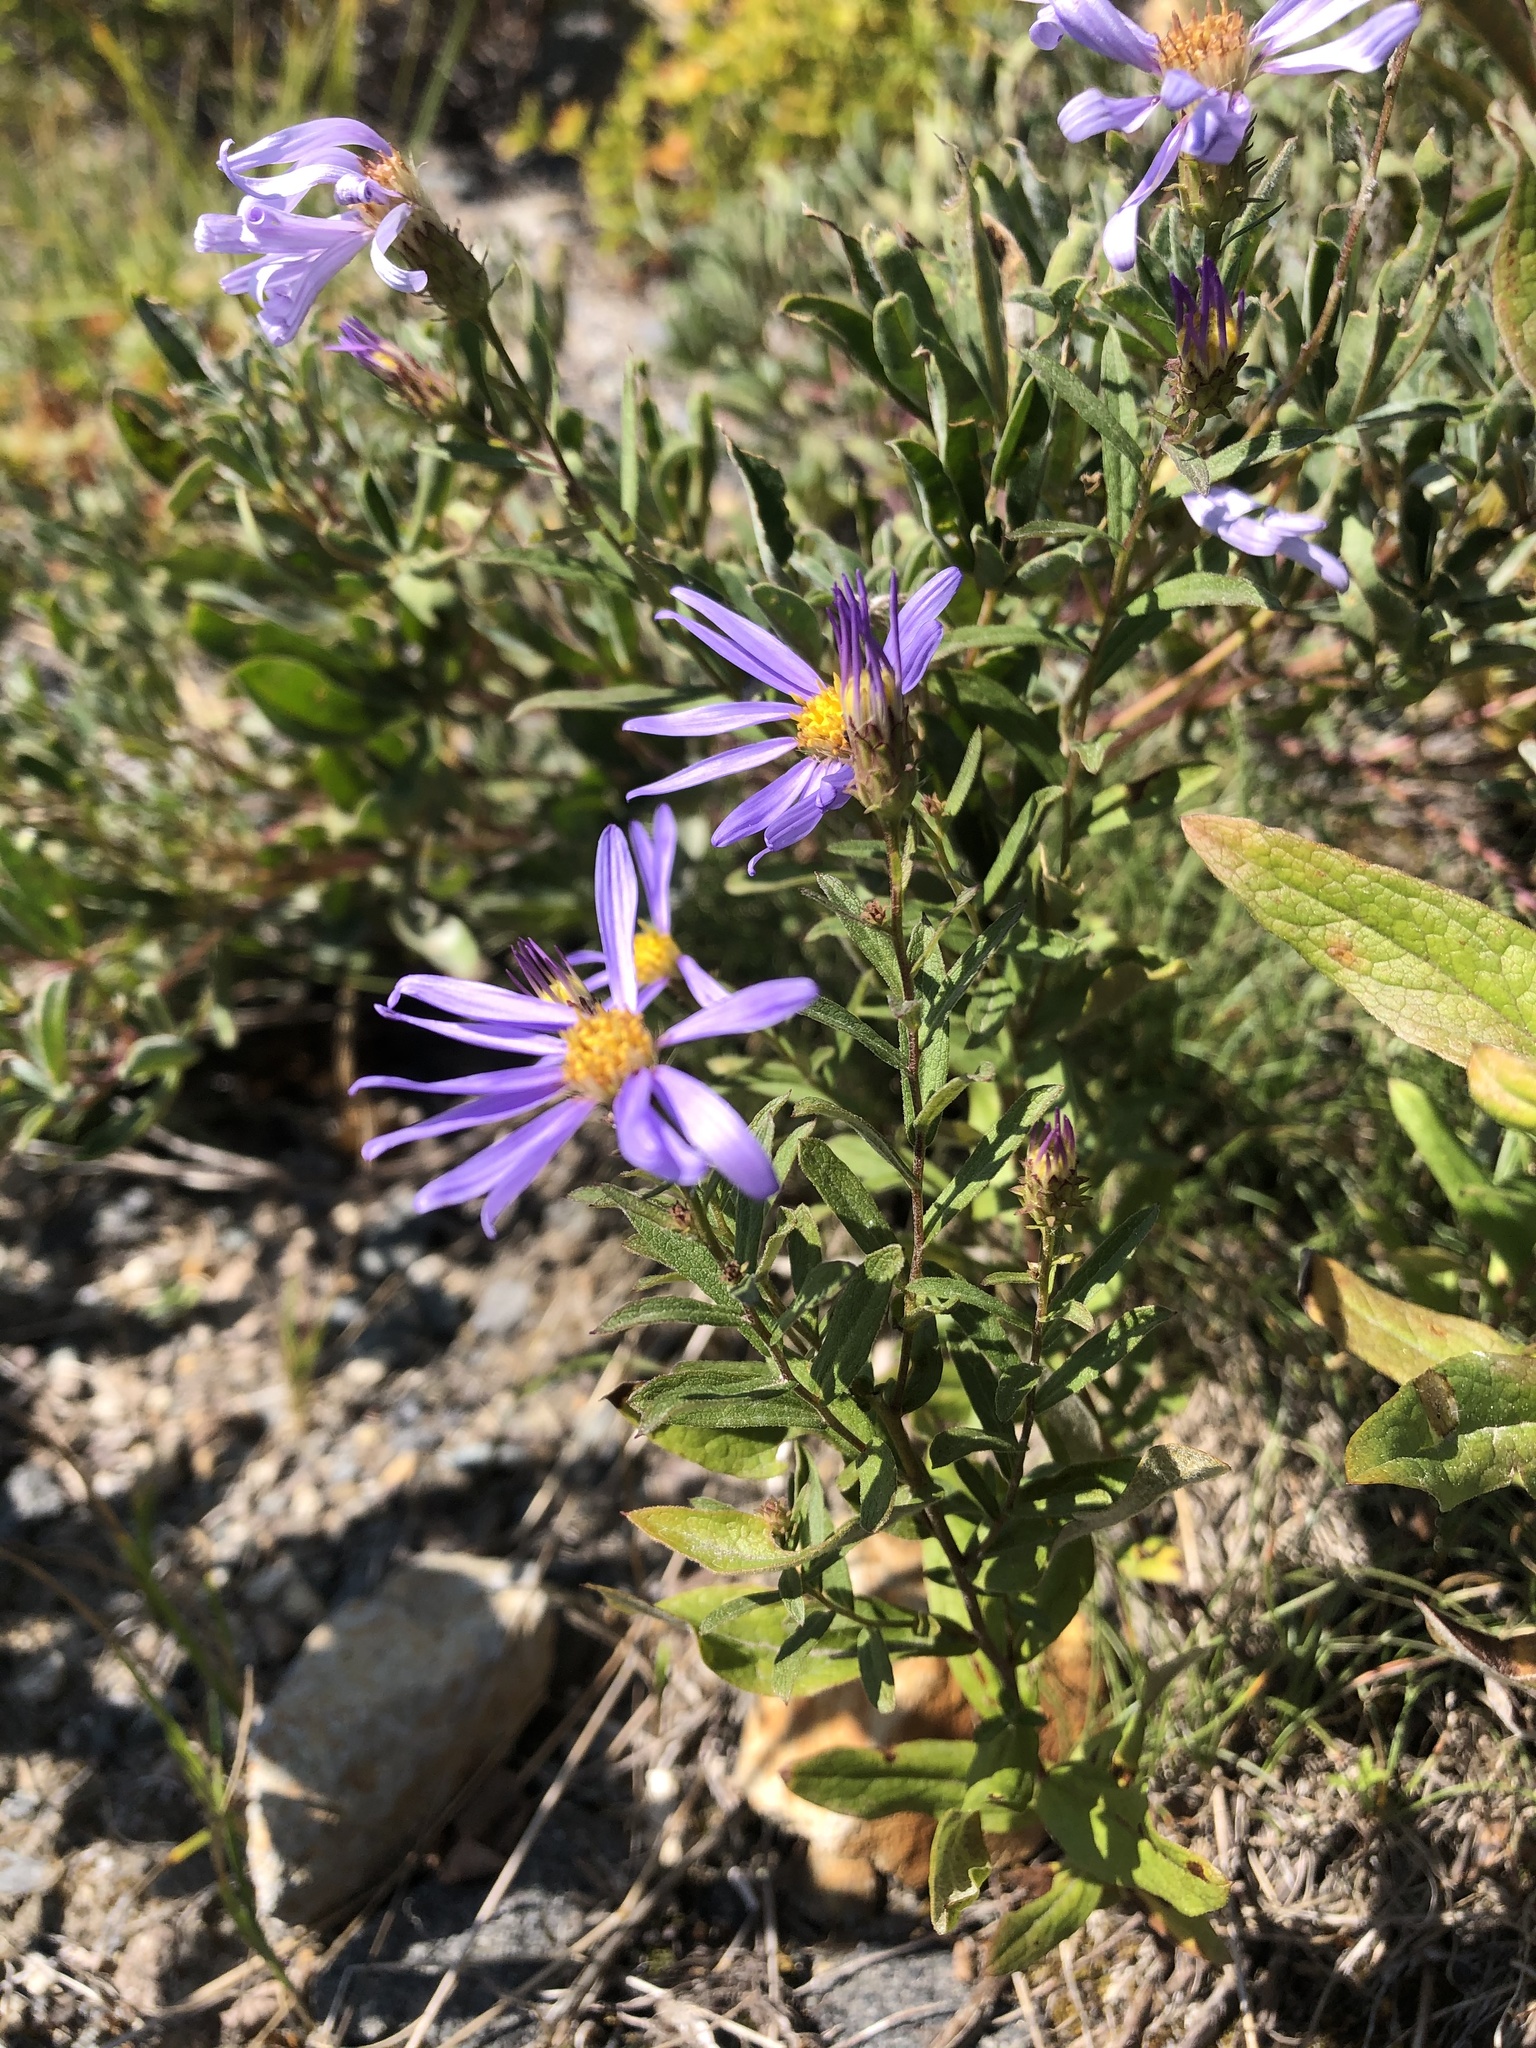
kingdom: Plantae
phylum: Tracheophyta
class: Magnoliopsida
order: Asterales
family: Asteraceae
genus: Eucephalus
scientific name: Eucephalus ledophyllus
